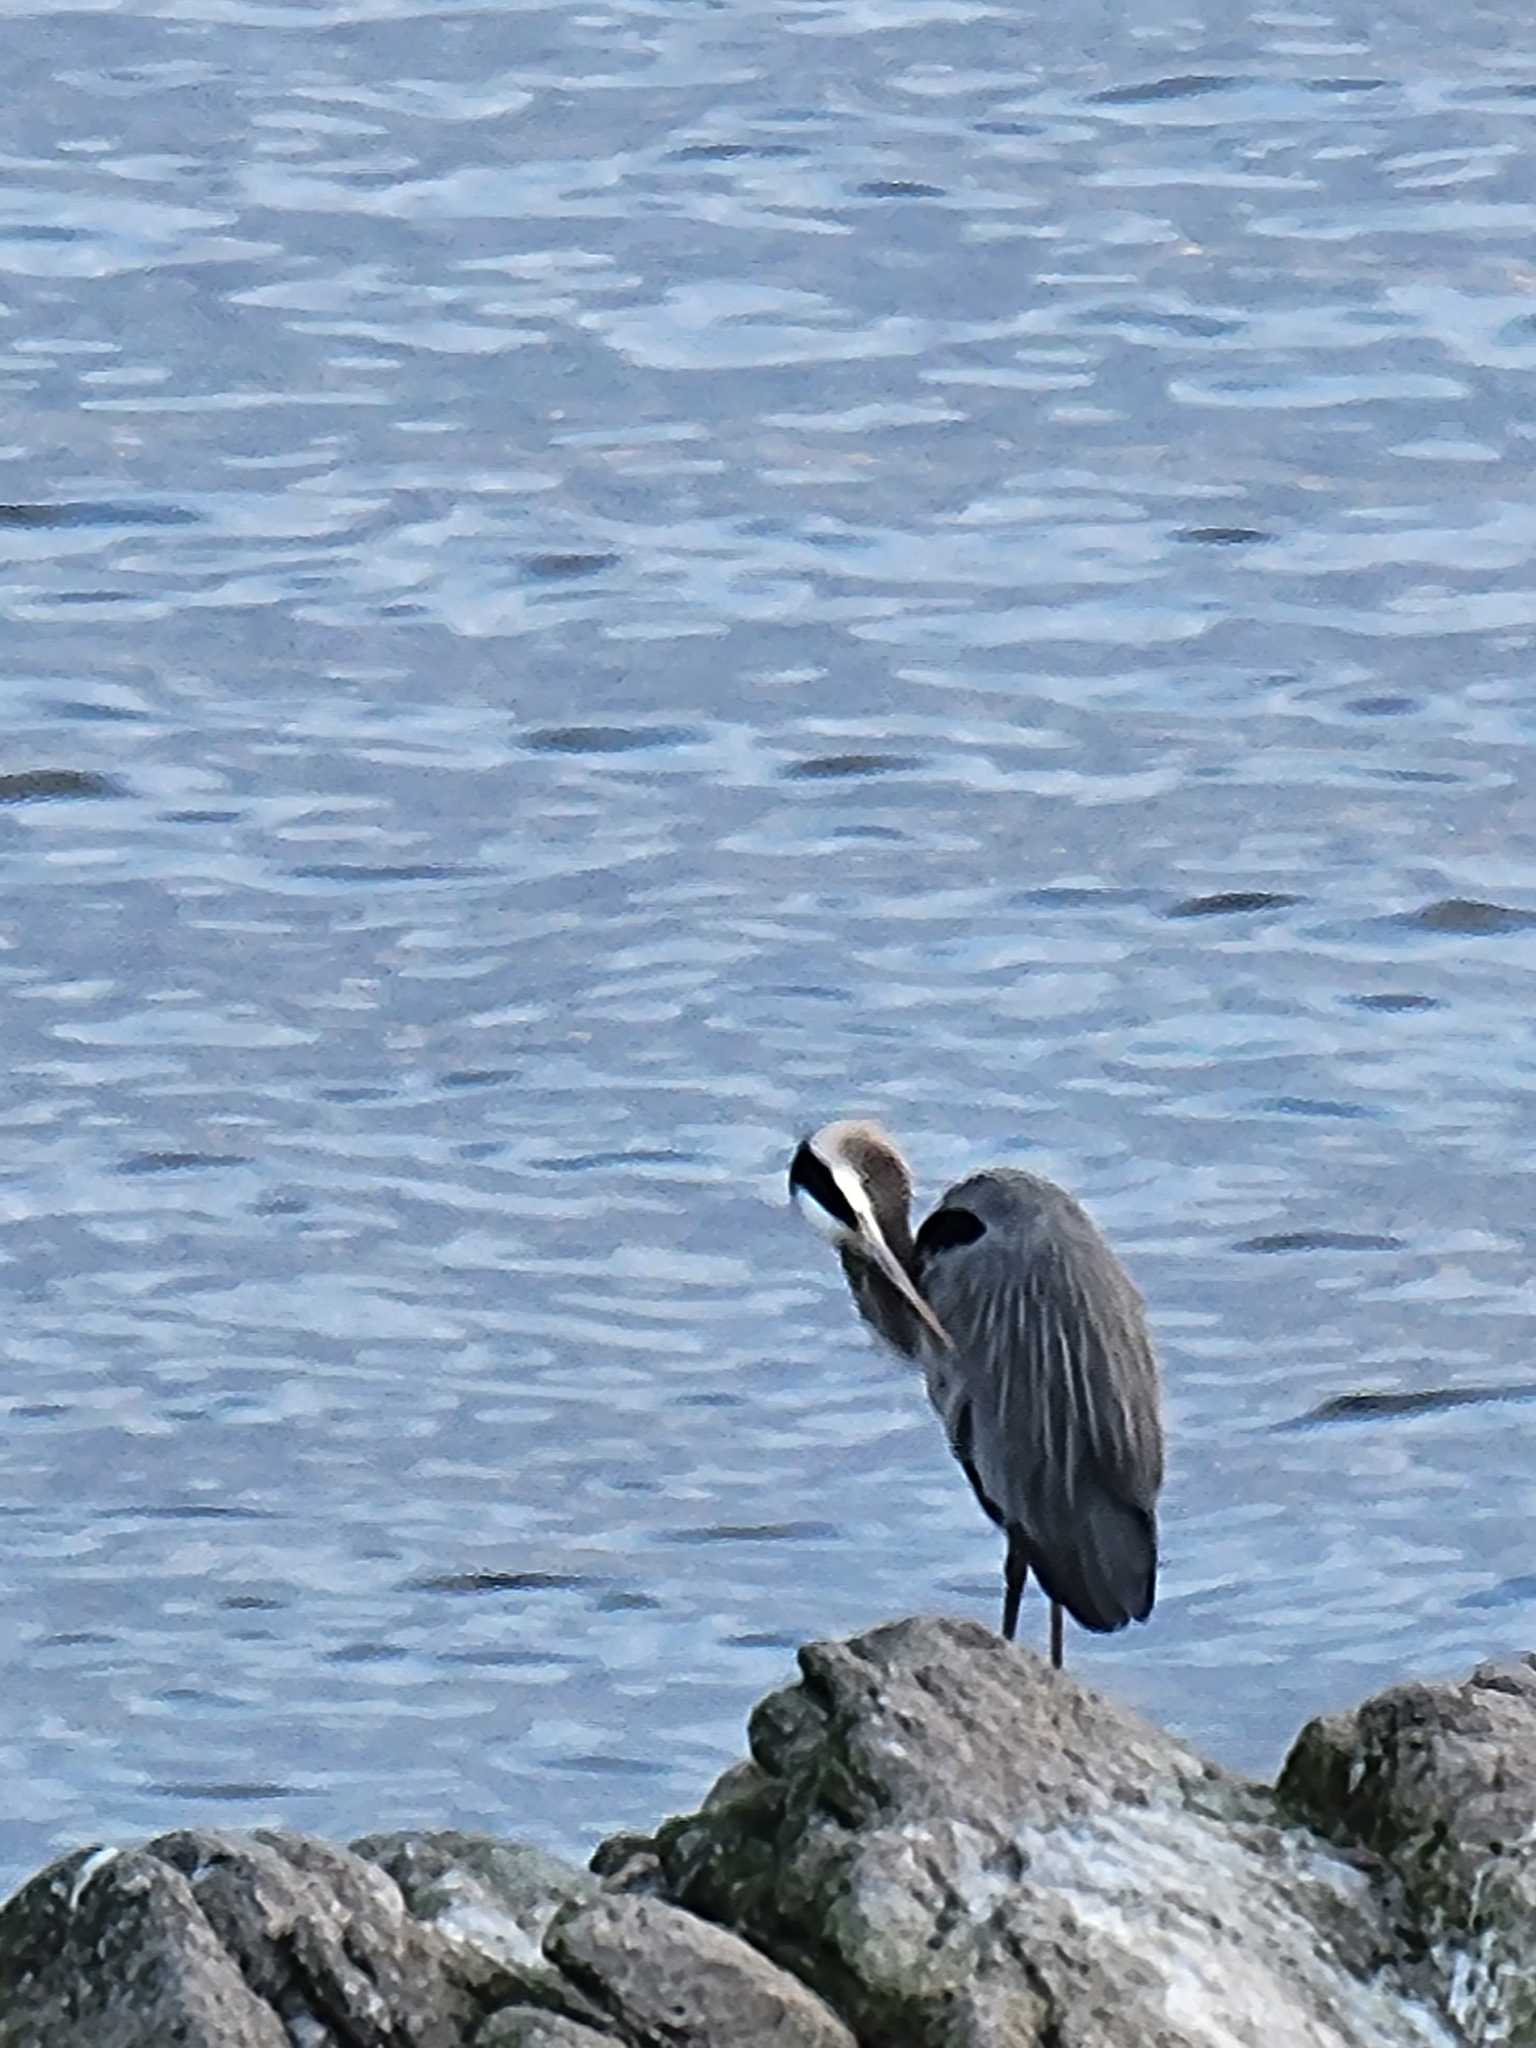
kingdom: Animalia
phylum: Chordata
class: Aves
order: Pelecaniformes
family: Ardeidae
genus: Ardea
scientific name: Ardea herodias
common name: Great blue heron
